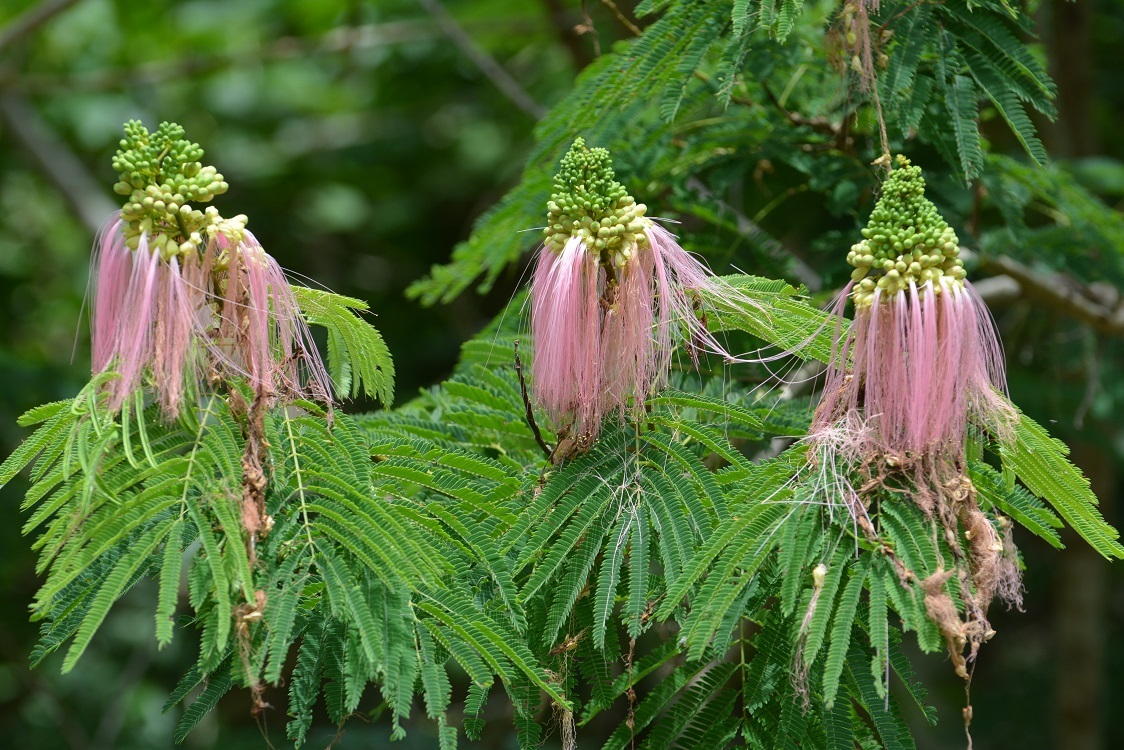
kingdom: Plantae
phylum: Tracheophyta
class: Magnoliopsida
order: Fabales
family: Fabaceae
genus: Calliandra
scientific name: Calliandra houstoniana
